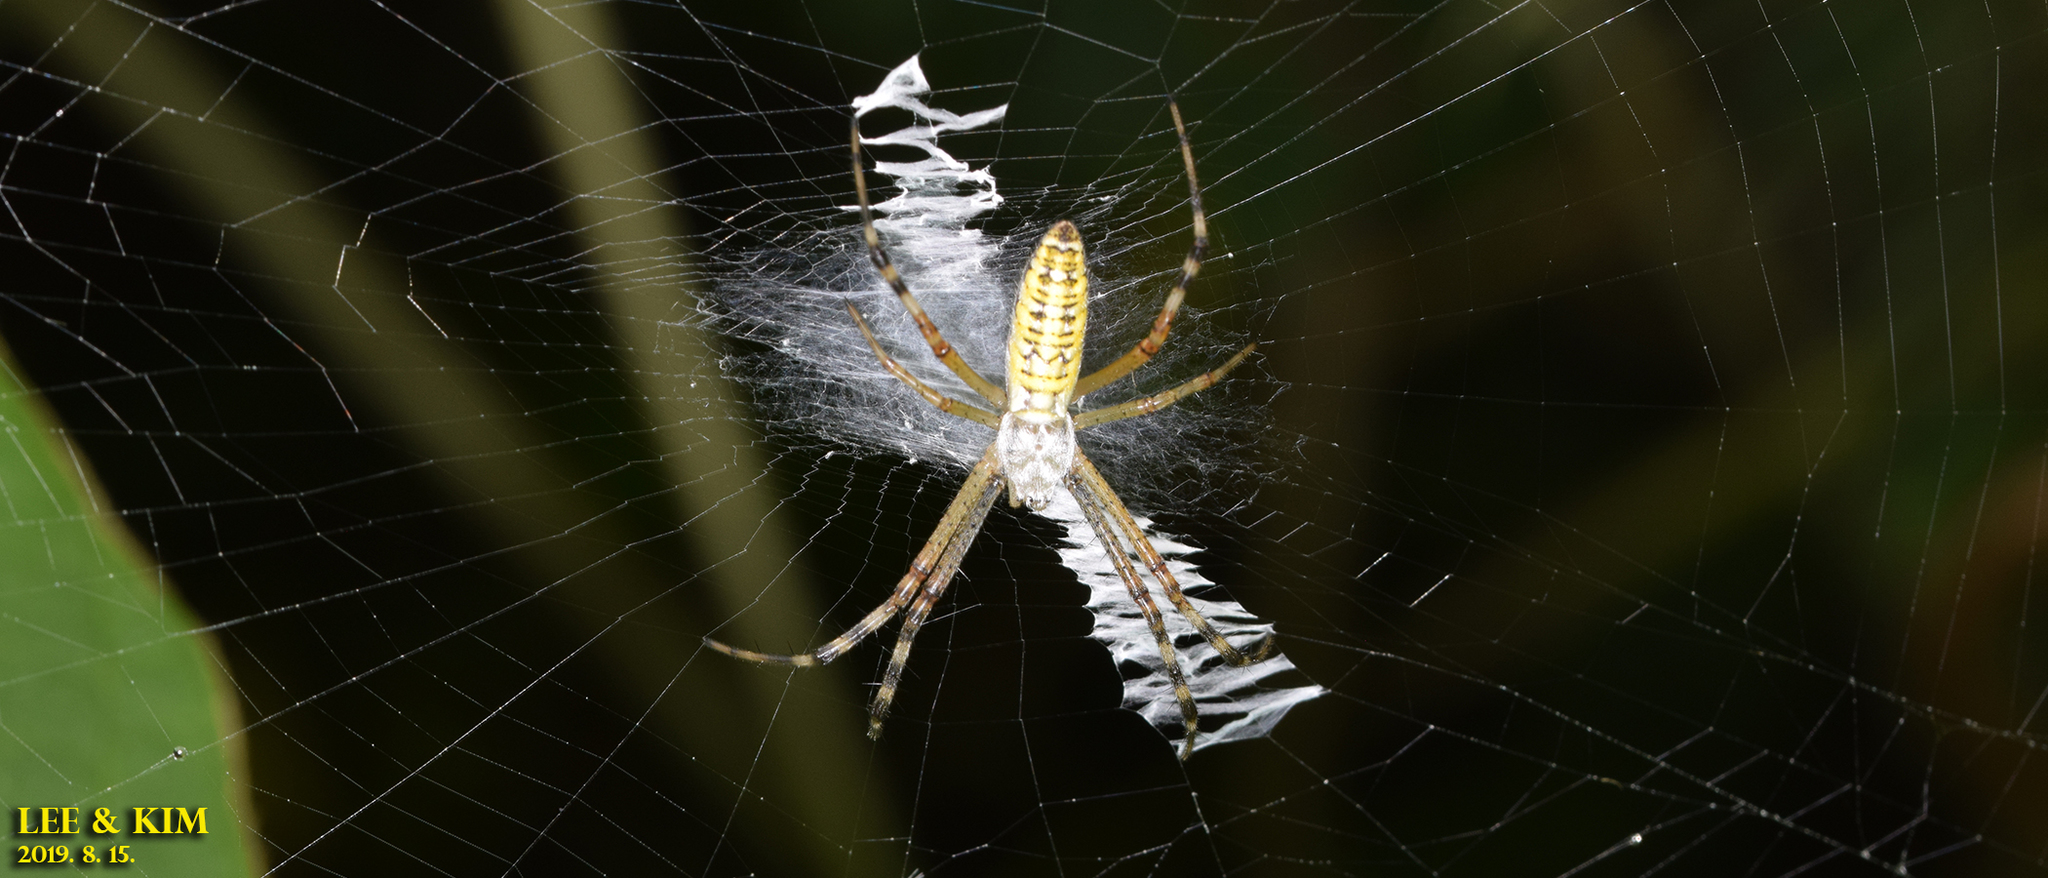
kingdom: Animalia
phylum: Arthropoda
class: Arachnida
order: Araneae
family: Araneidae
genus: Argiope
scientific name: Argiope bruennichi
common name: Wasp spider
